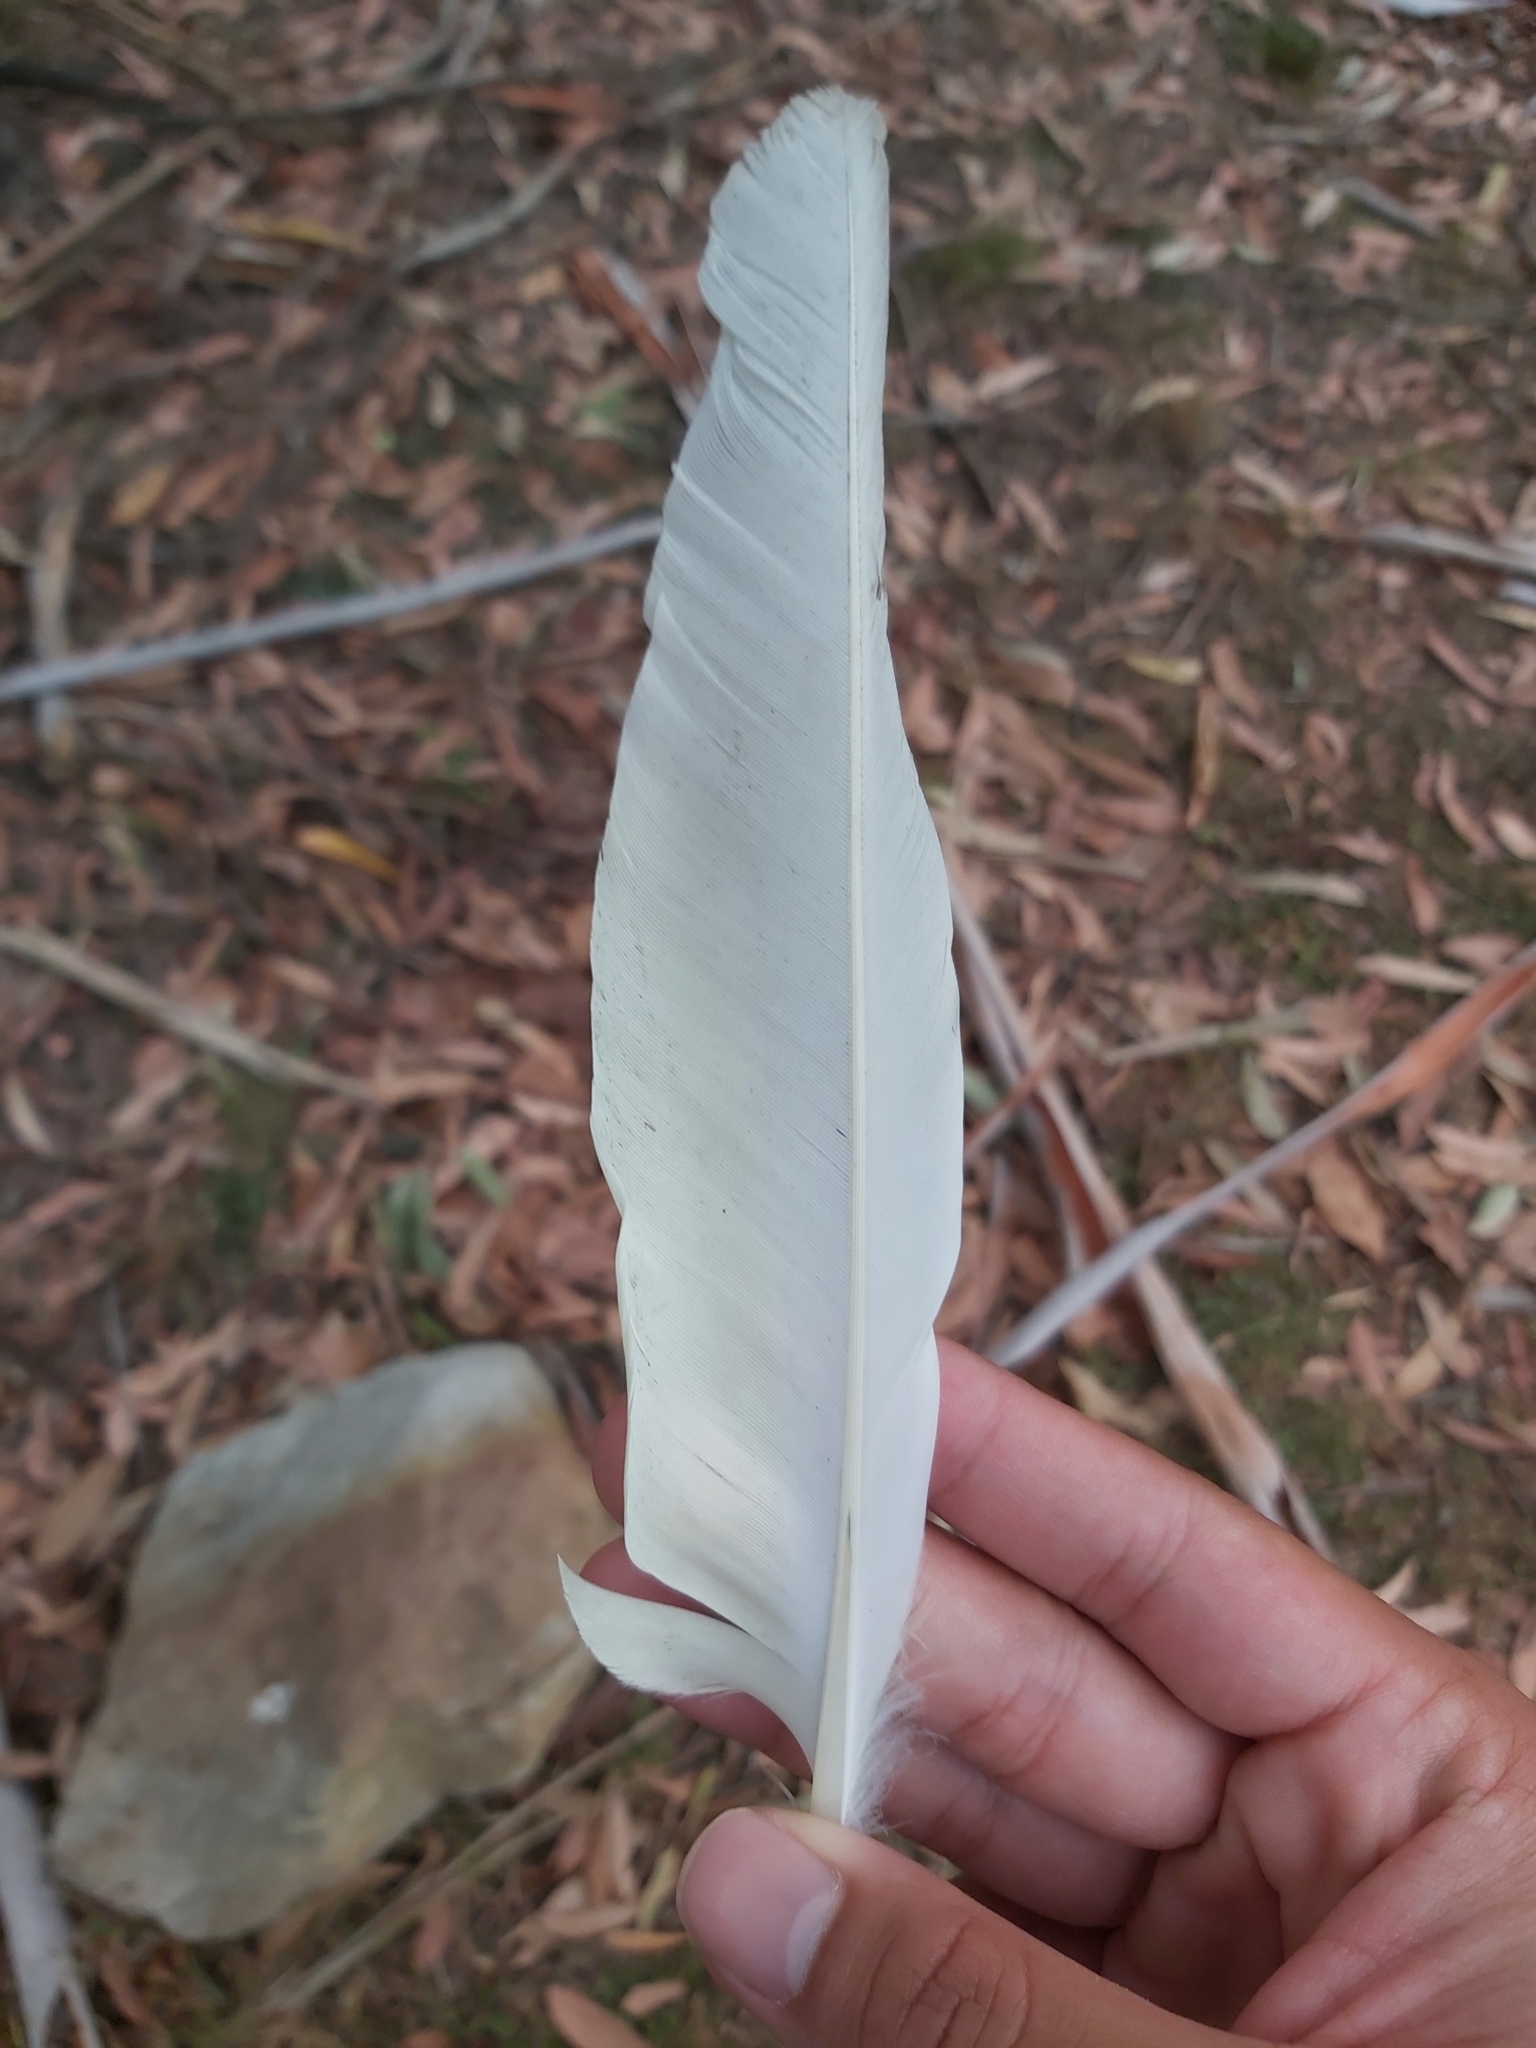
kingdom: Animalia
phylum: Chordata
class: Aves
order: Psittaciformes
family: Psittacidae
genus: Cacatua
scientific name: Cacatua sanguinea
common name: Little corella
